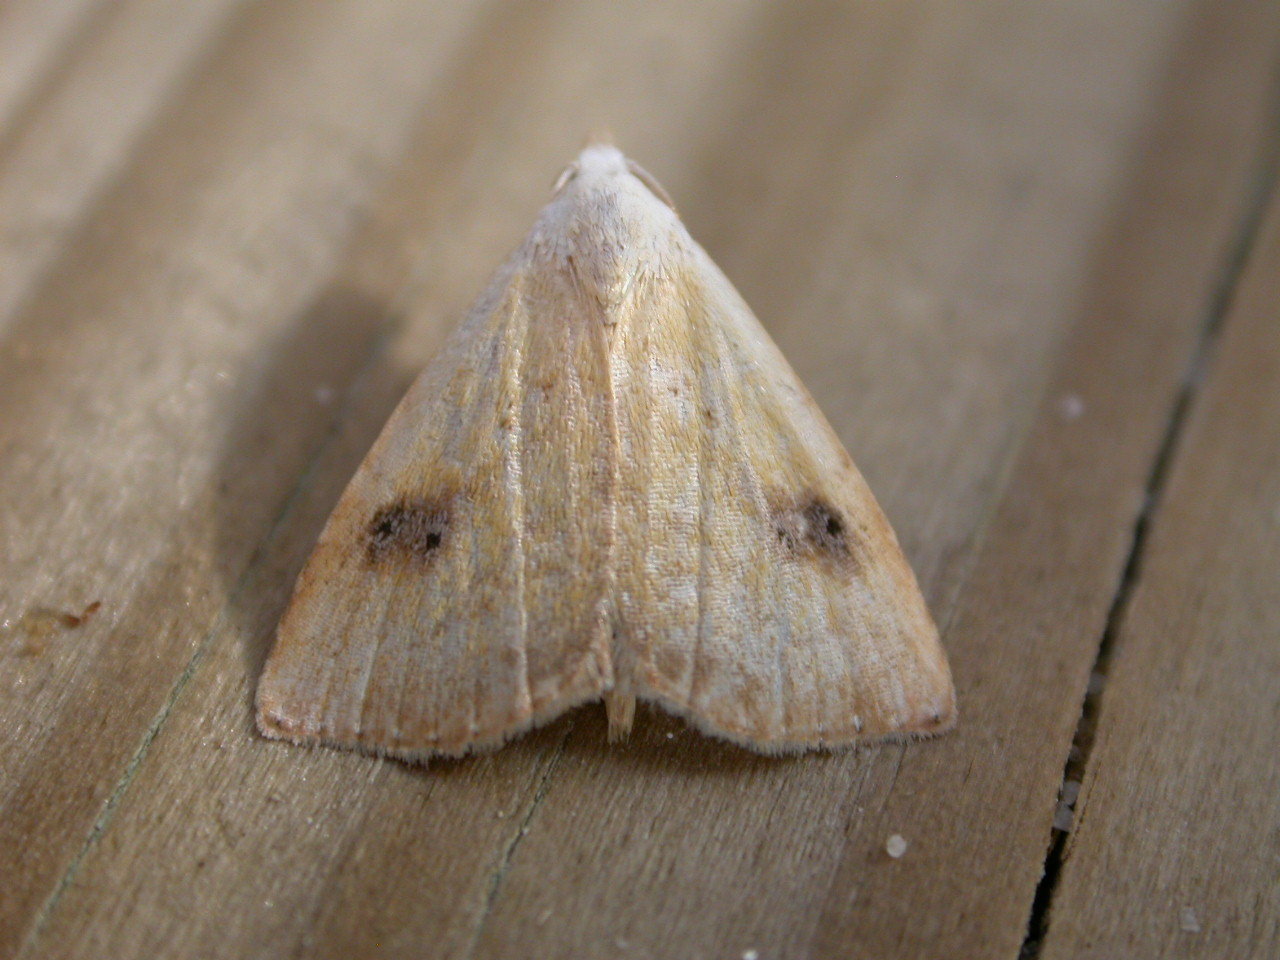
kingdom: Animalia
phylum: Arthropoda
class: Insecta
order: Lepidoptera
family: Erebidae
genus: Rivula
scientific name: Rivula sericealis
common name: Straw dot
